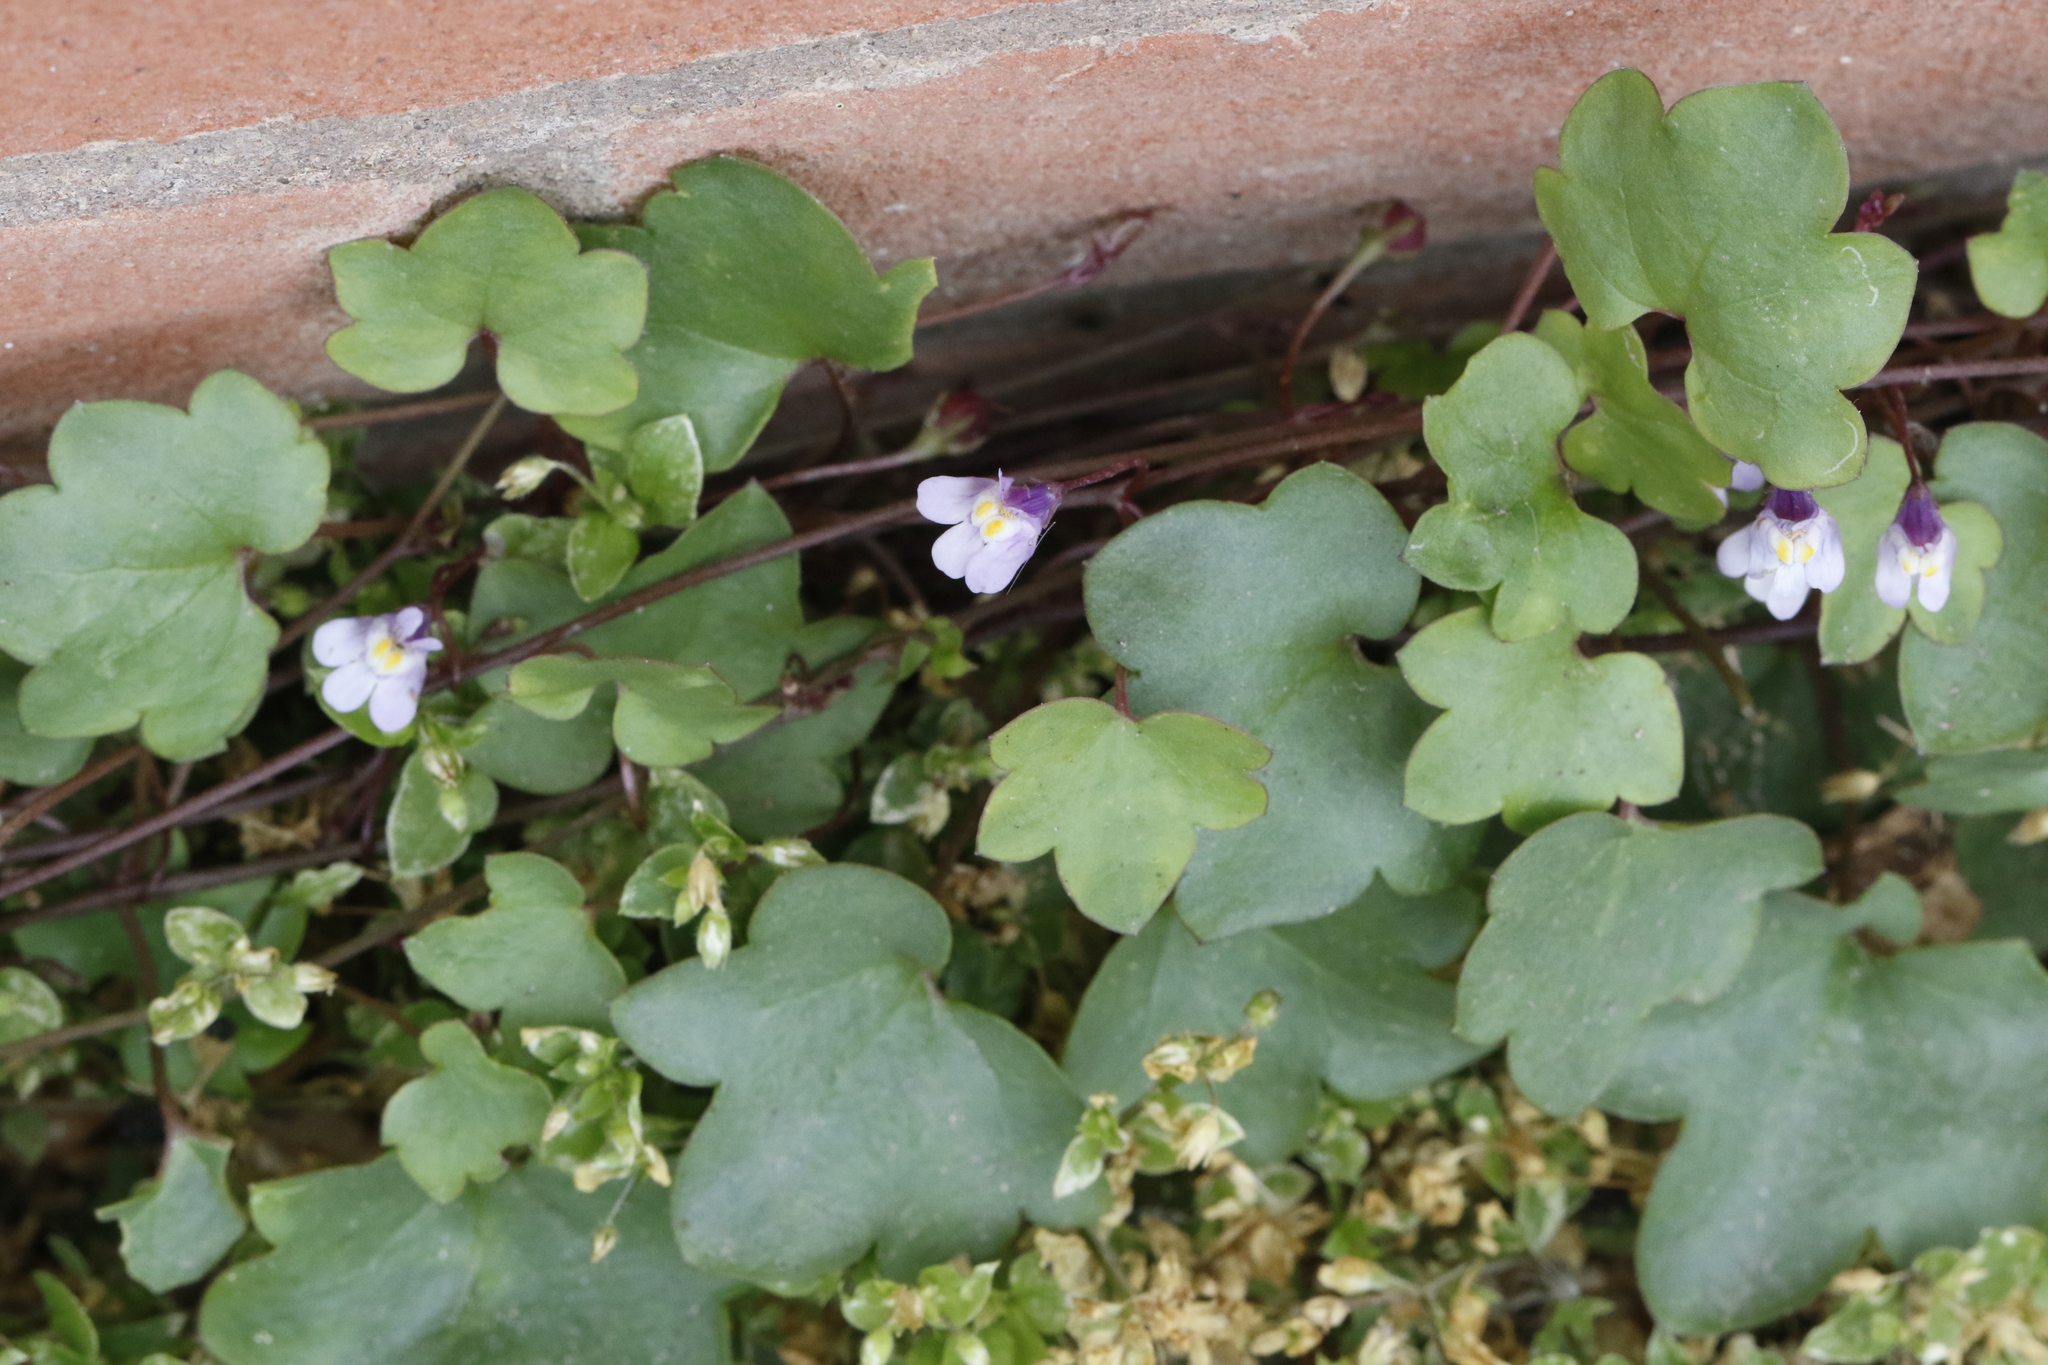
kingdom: Plantae
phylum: Tracheophyta
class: Magnoliopsida
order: Lamiales
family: Plantaginaceae
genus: Cymbalaria
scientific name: Cymbalaria muralis
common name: Ivy-leaved toadflax
